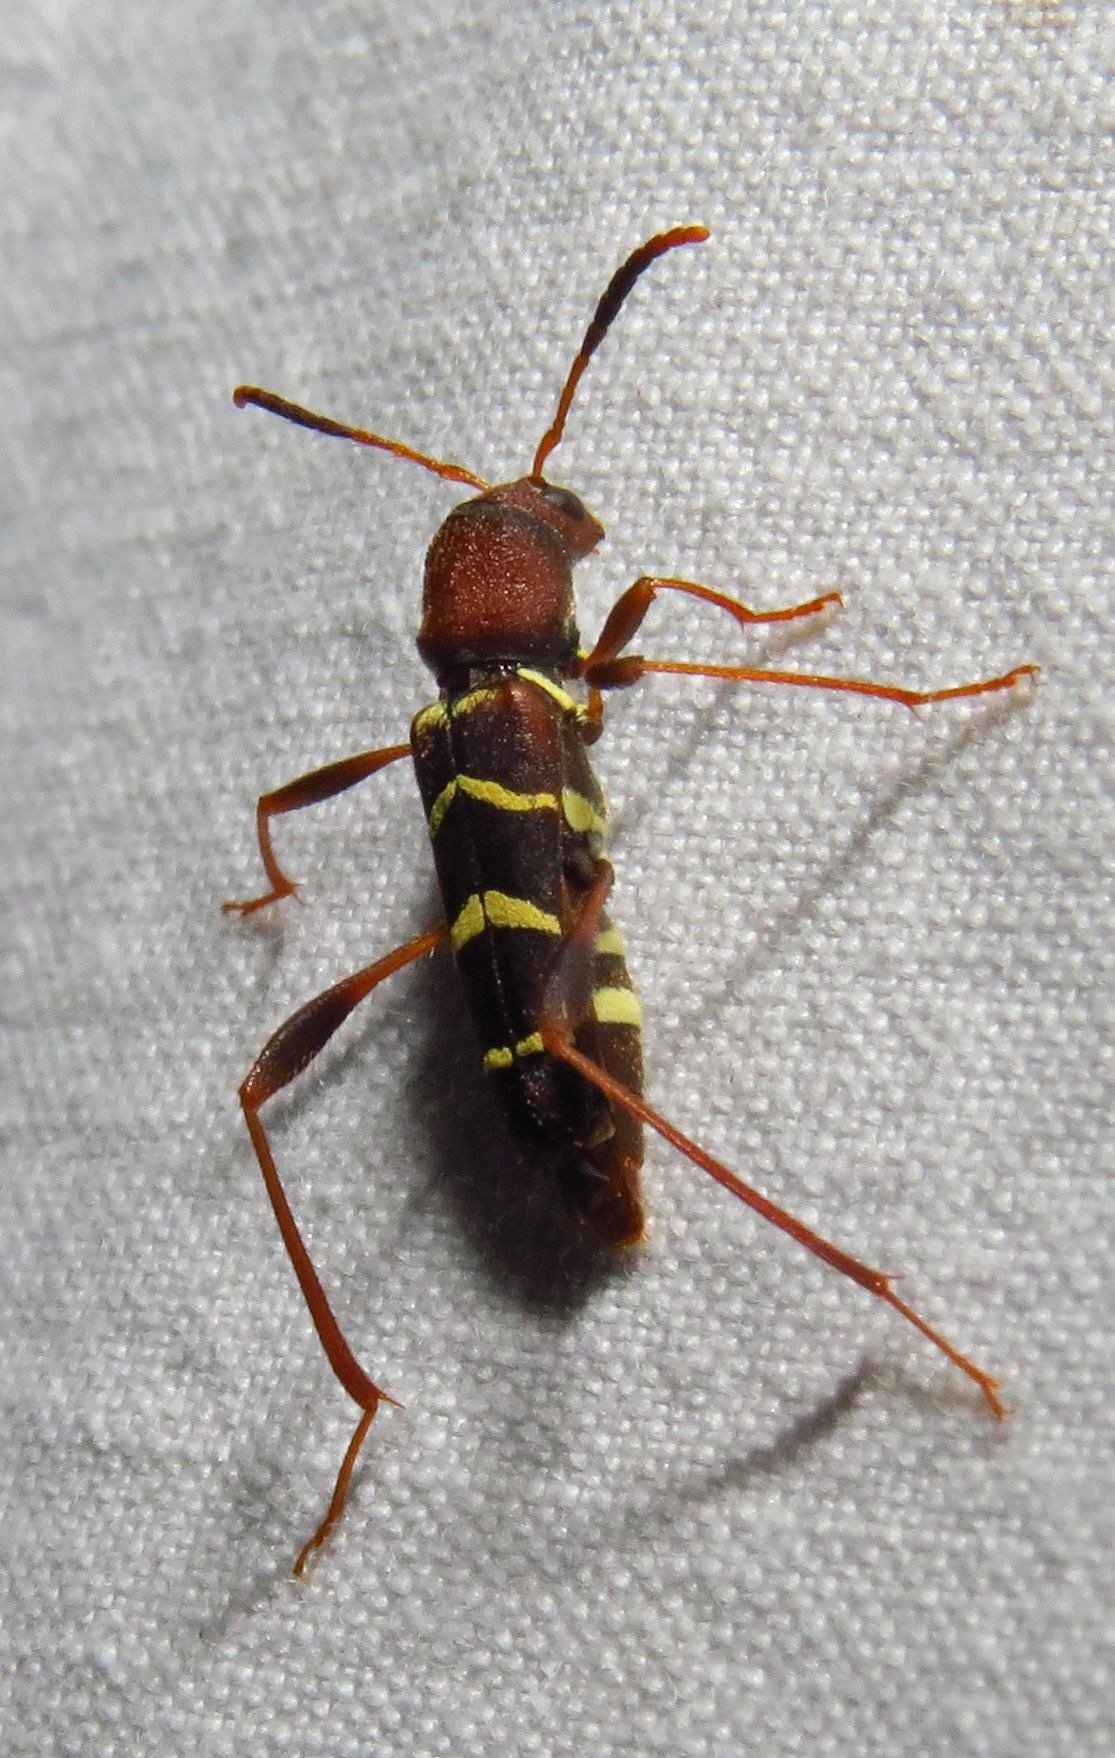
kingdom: Animalia
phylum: Arthropoda
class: Insecta
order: Coleoptera
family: Cerambycidae
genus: Neoclytus
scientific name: Neoclytus acuminatus
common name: Read-headed ash borer
